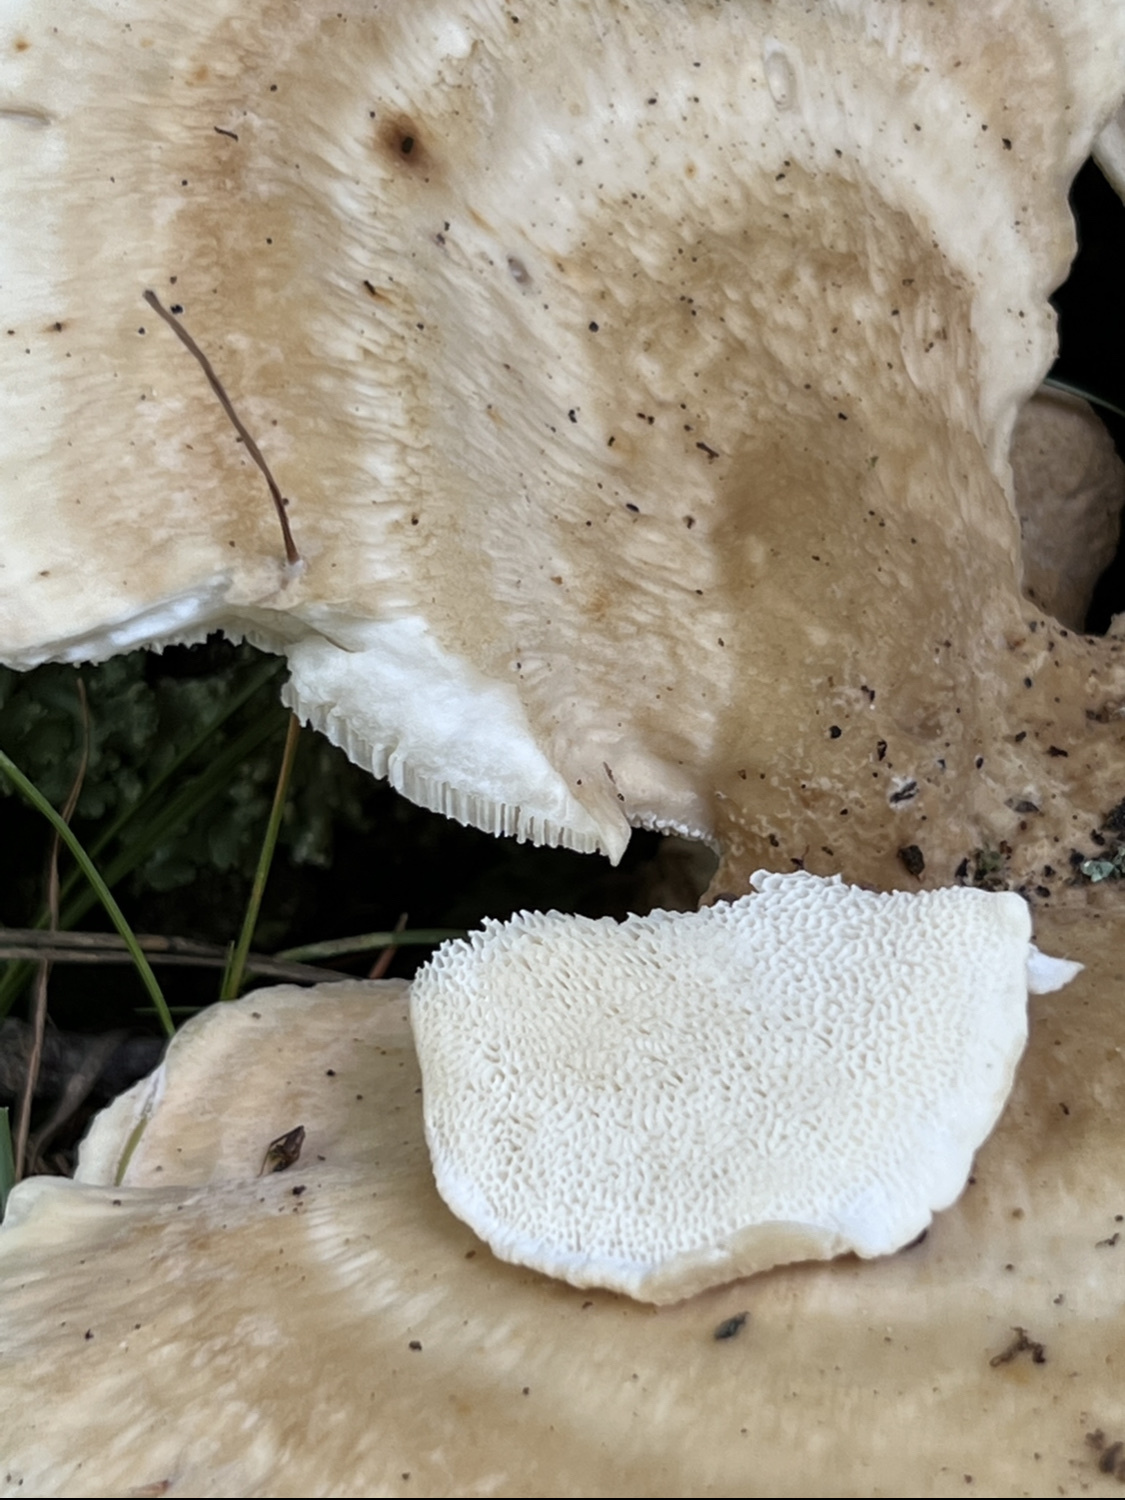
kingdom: Fungi
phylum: Basidiomycota
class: Agaricomycetes
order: Russulales
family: Bondarzewiaceae
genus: Bondarzewia
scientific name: Bondarzewia berkeleyi
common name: Berkeley's polypore
